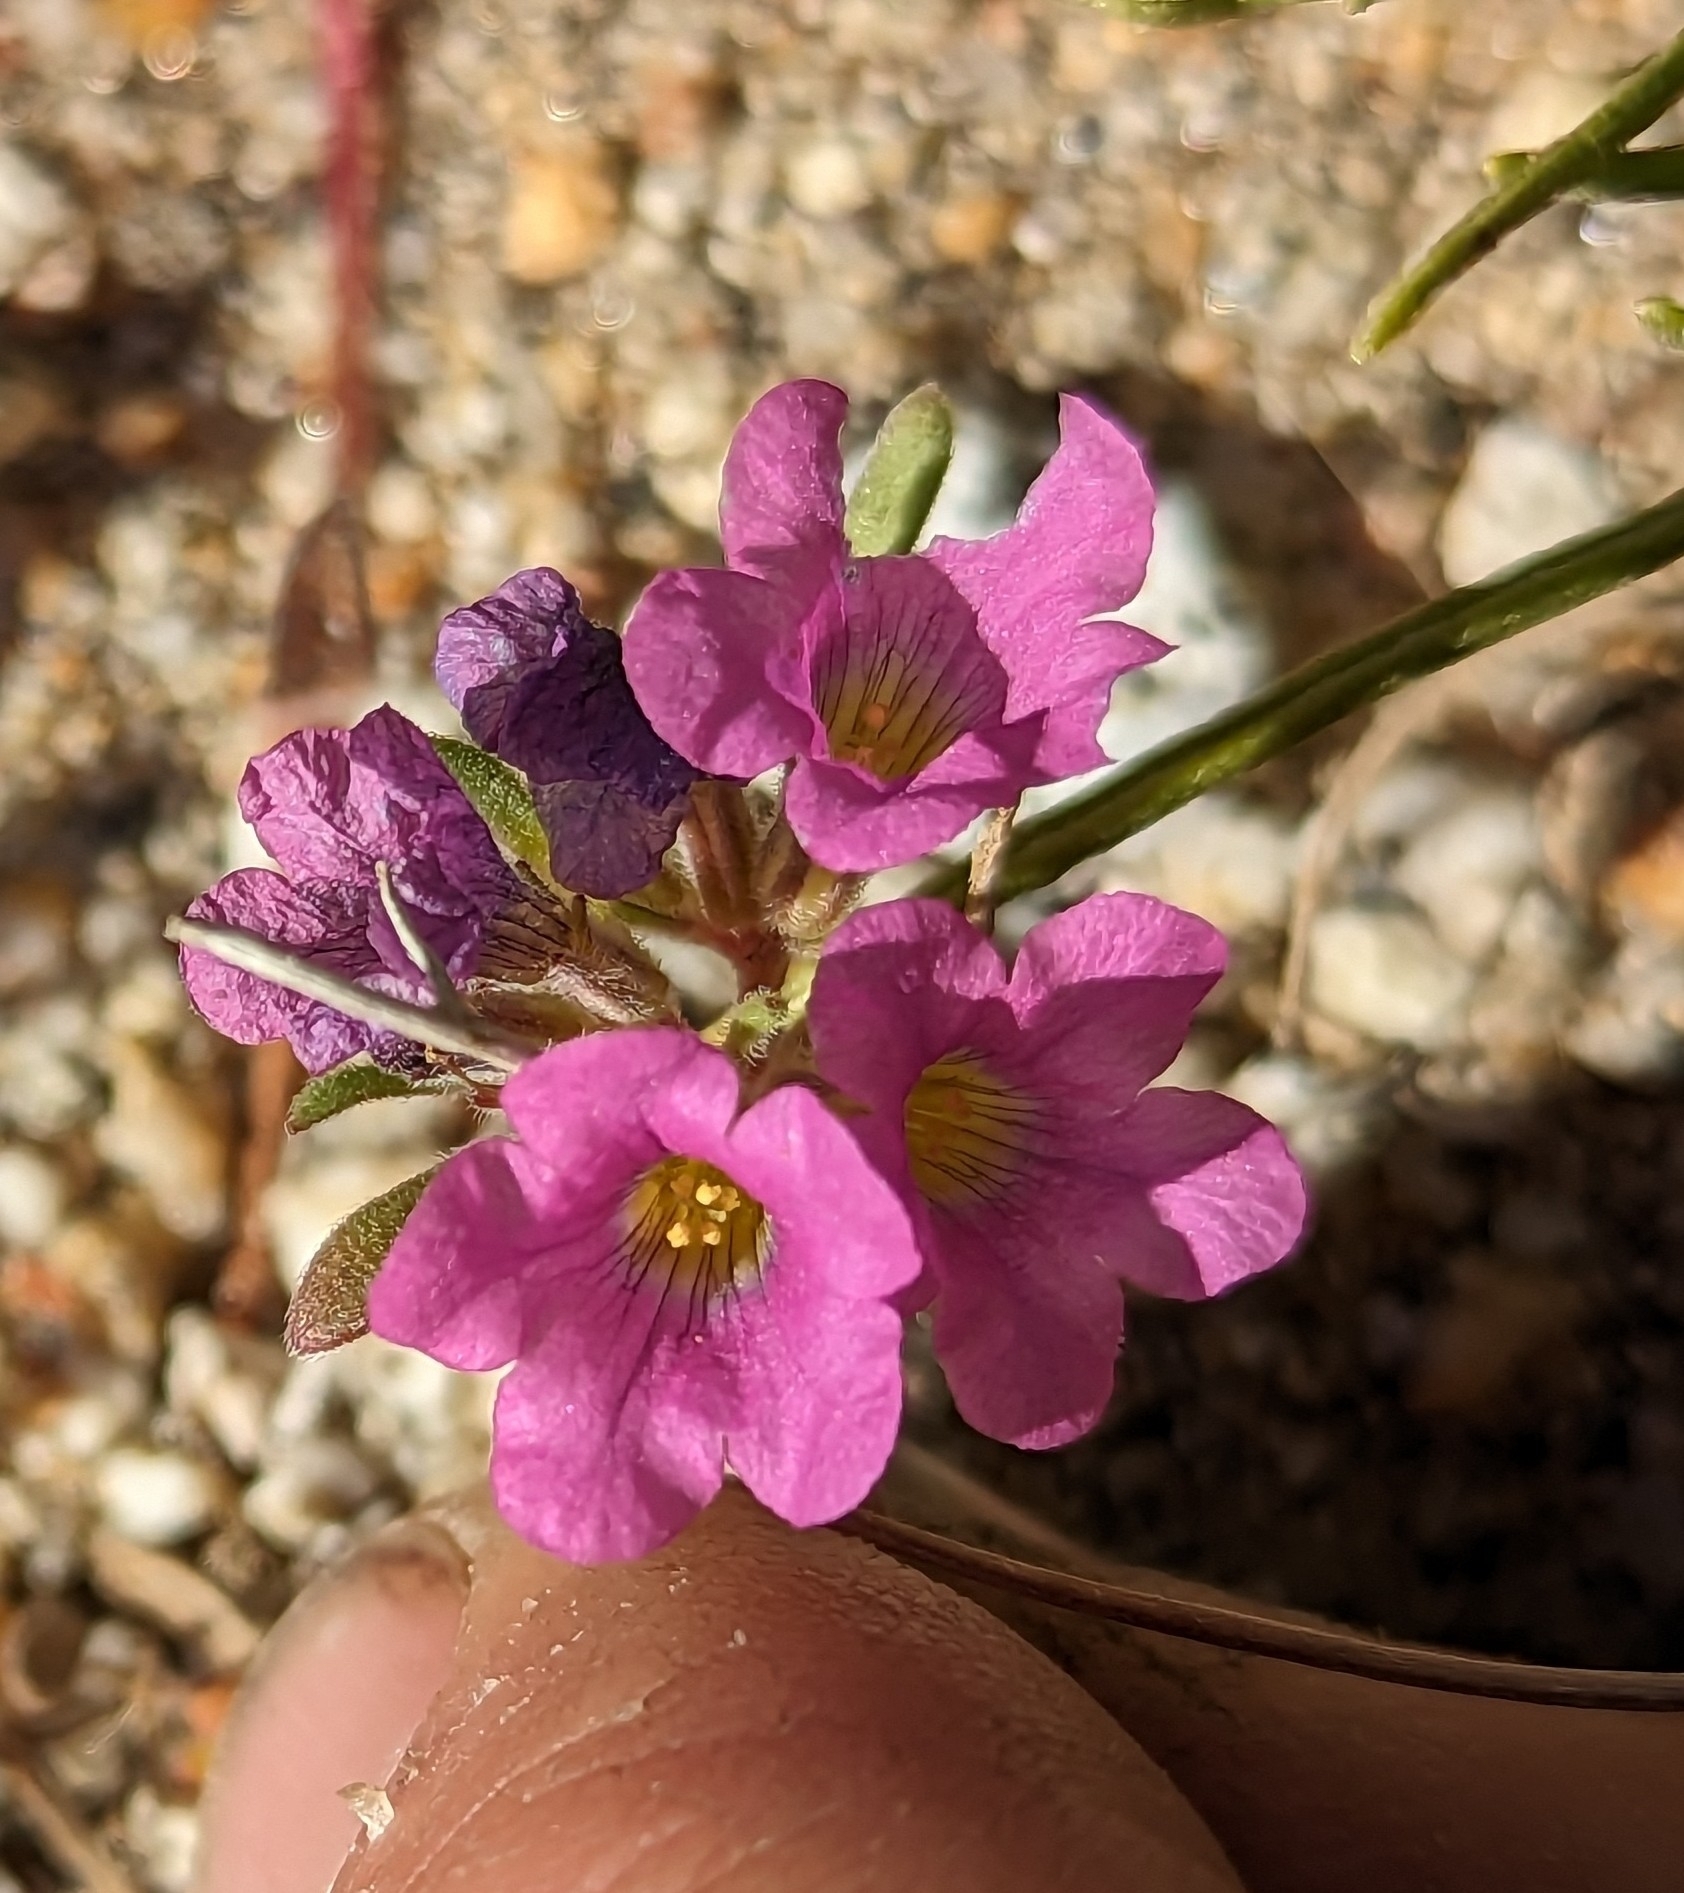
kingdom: Plantae
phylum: Tracheophyta
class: Magnoliopsida
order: Boraginales
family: Namaceae
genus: Nama
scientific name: Nama demissa
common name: Leafy nama
